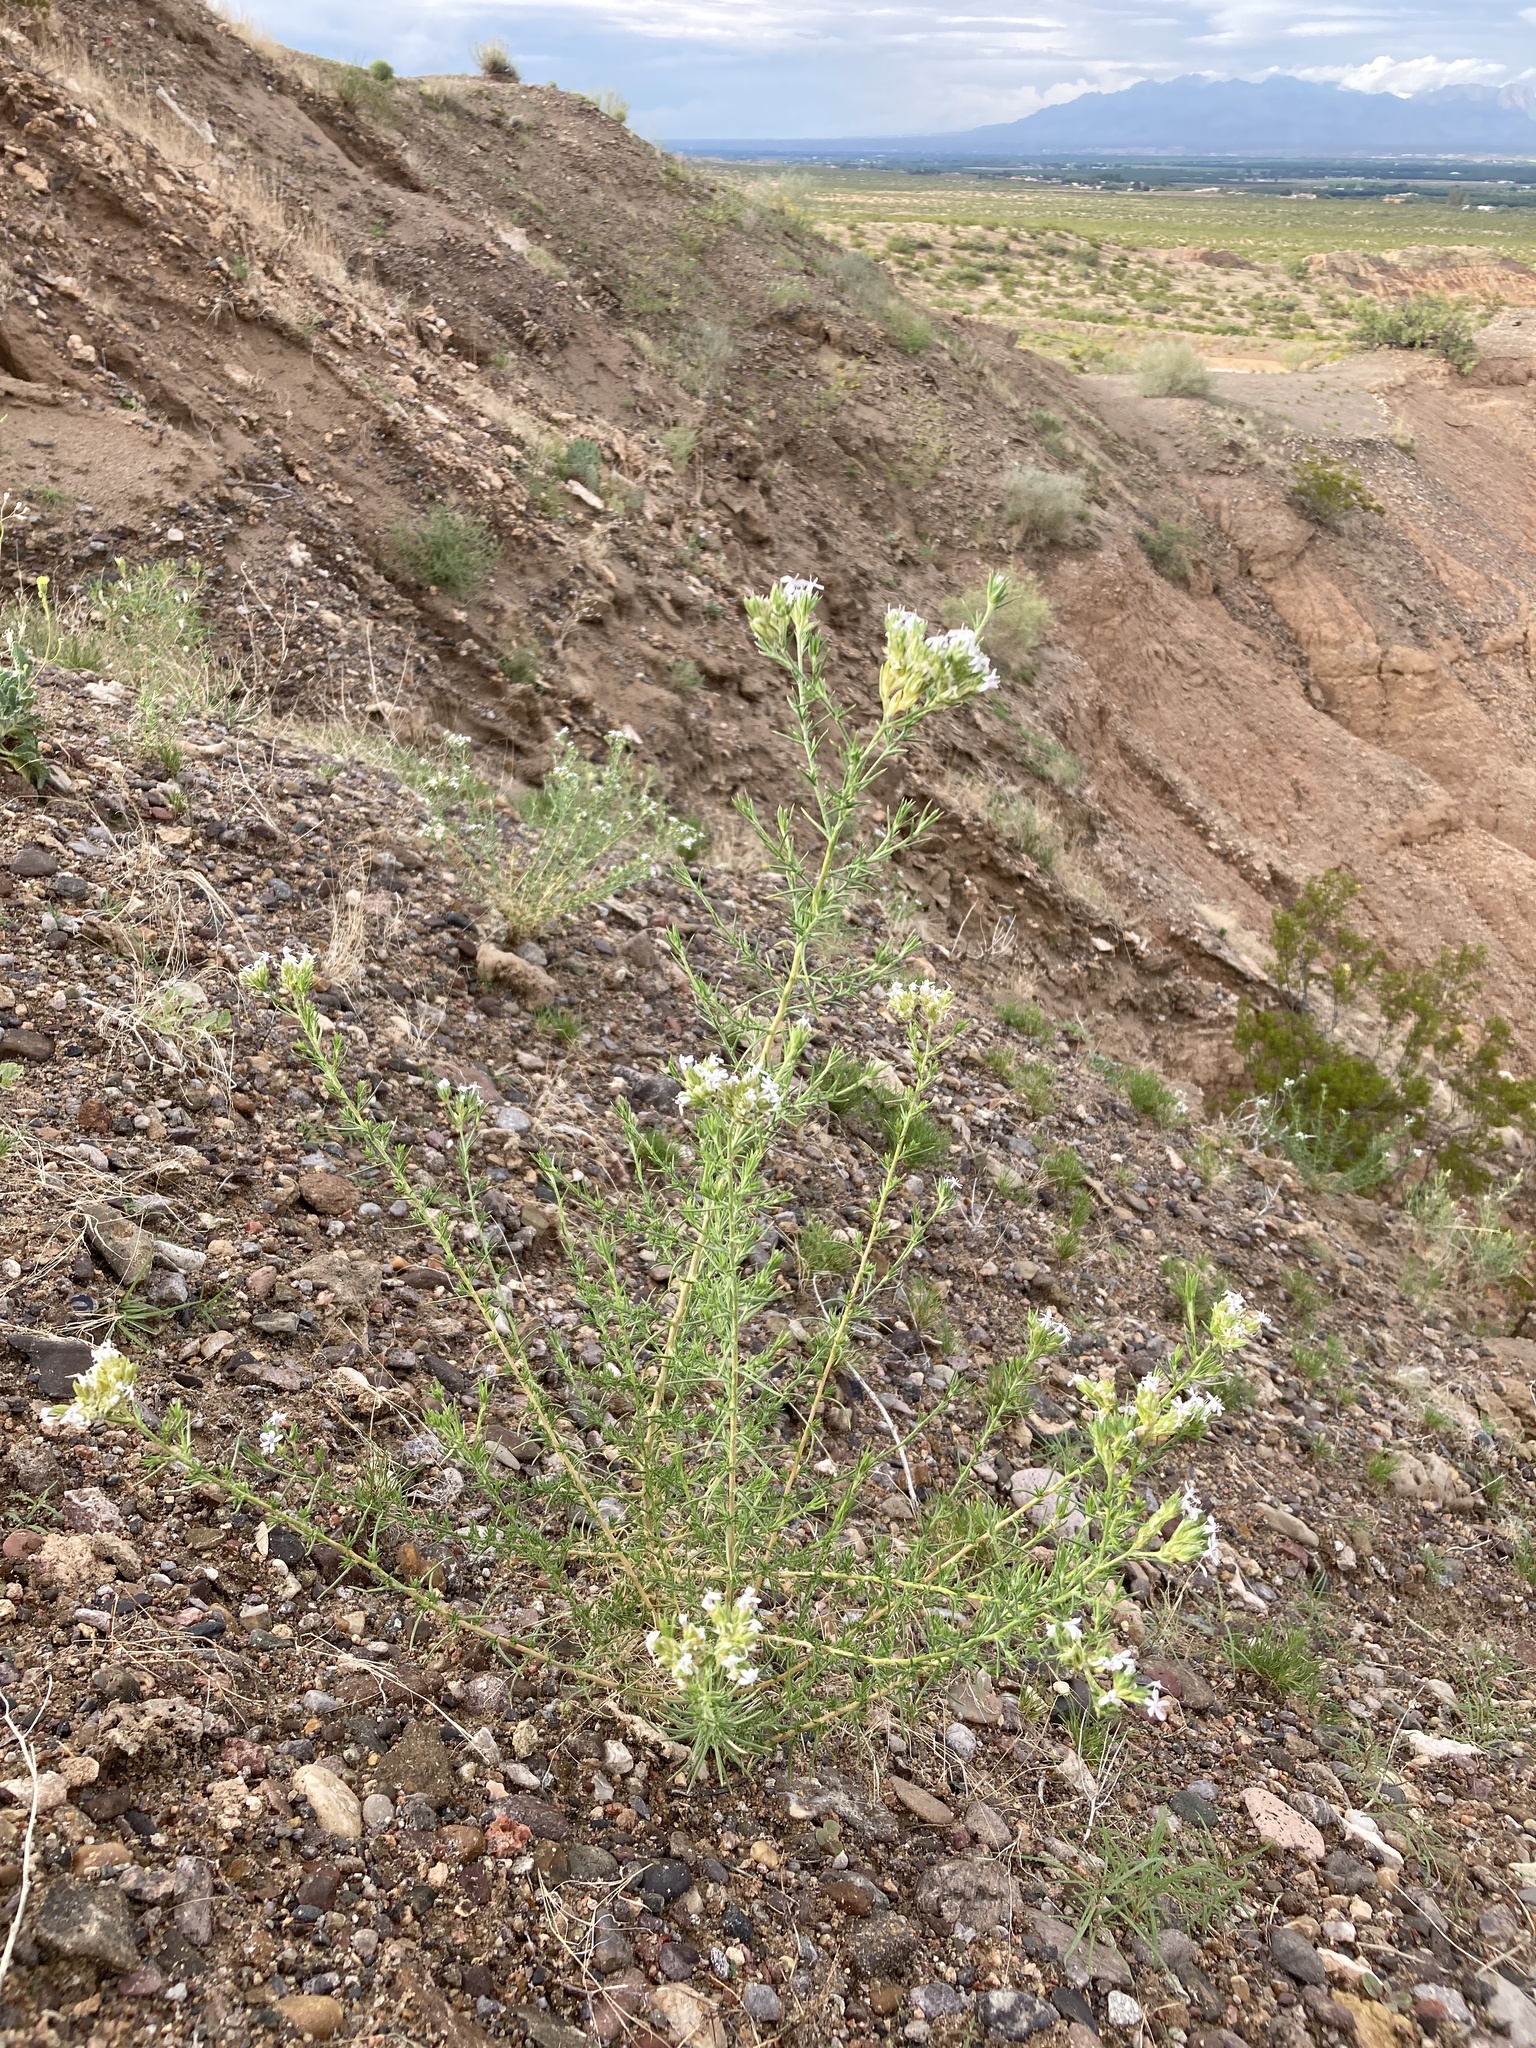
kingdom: Plantae
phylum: Tracheophyta
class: Magnoliopsida
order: Ericales
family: Polemoniaceae
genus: Ipomopsis
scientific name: Ipomopsis wrightii
